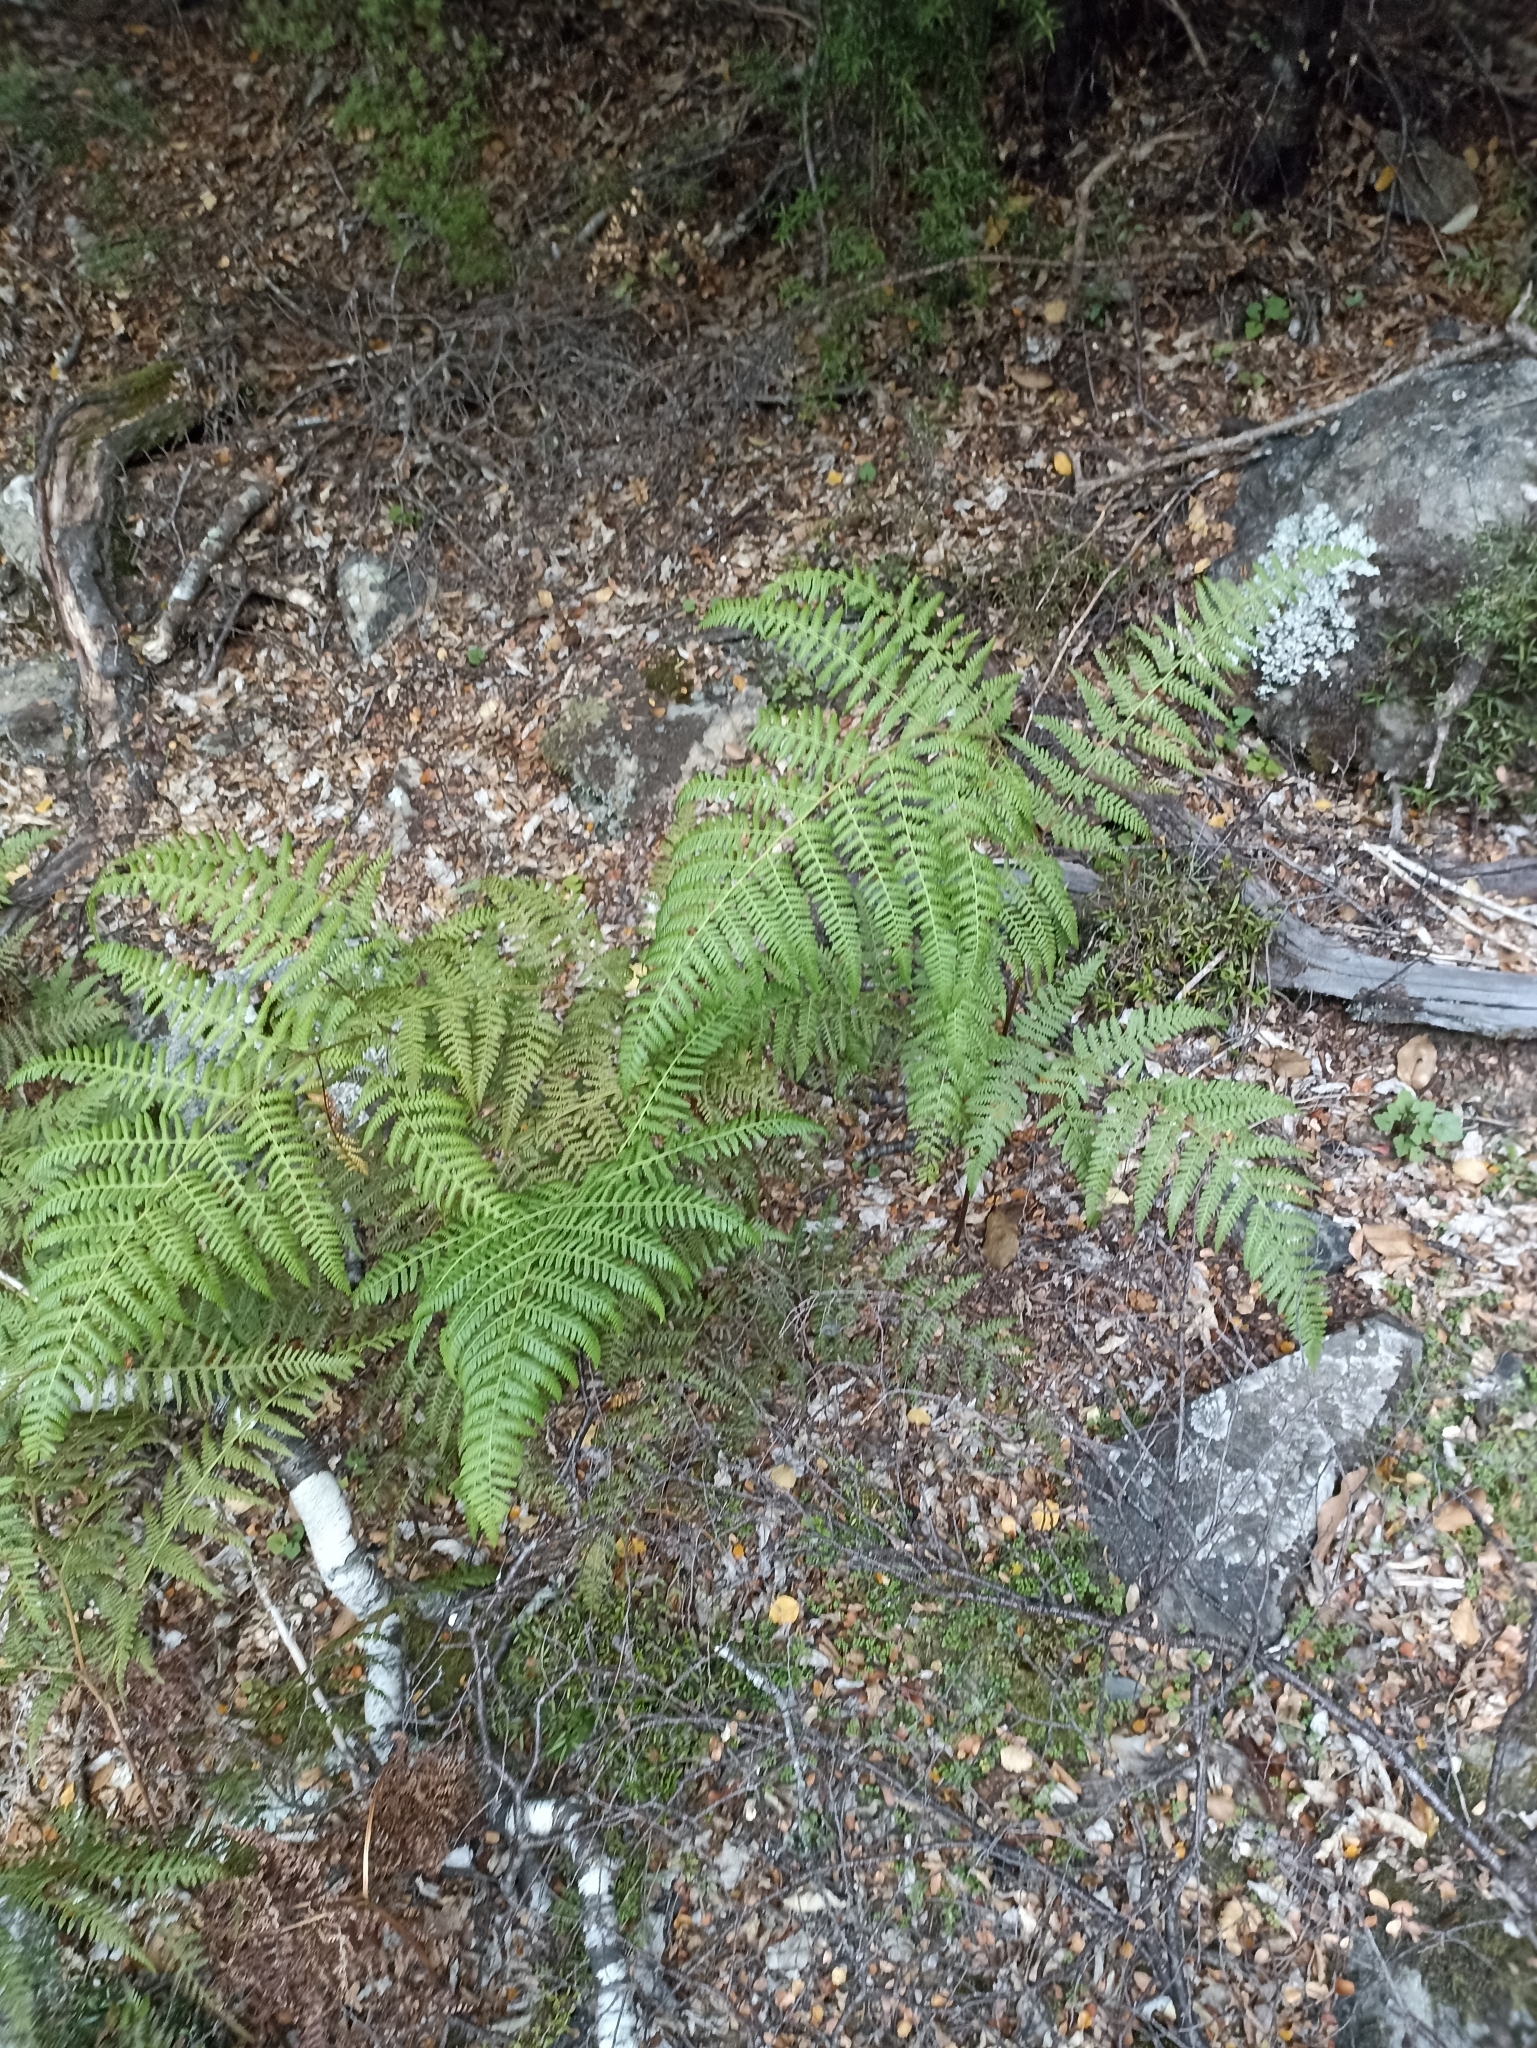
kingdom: Plantae
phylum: Tracheophyta
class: Polypodiopsida
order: Polypodiales
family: Dennstaedtiaceae
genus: Hypolepis
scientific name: Hypolepis ambigua
